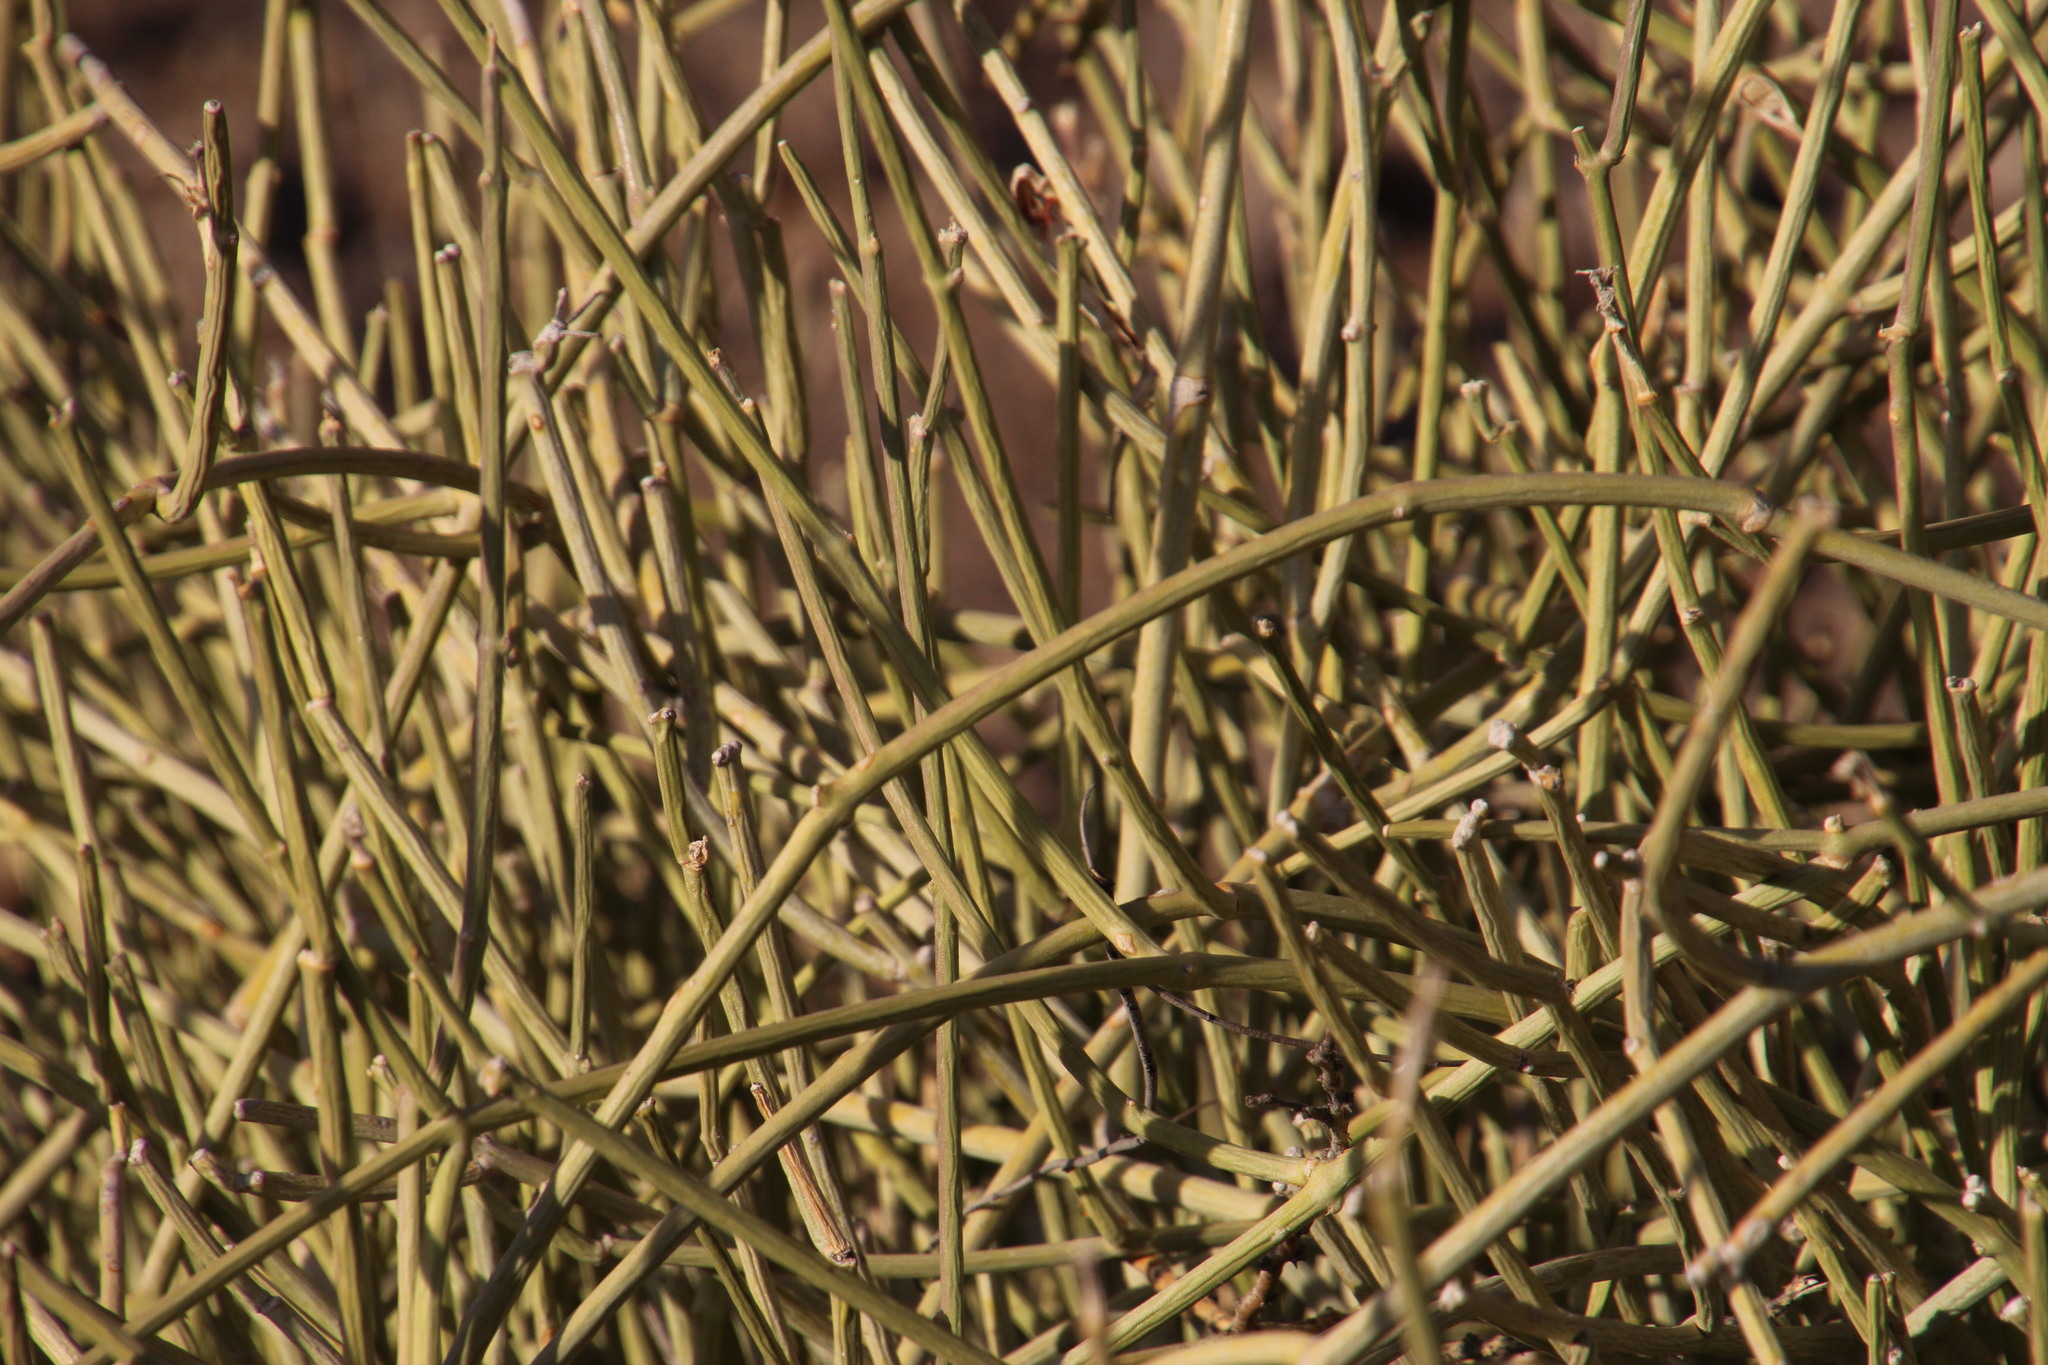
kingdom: Plantae
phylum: Tracheophyta
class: Magnoliopsida
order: Gentianales
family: Apocynaceae
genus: Cynanchum
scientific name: Cynanchum viminale
